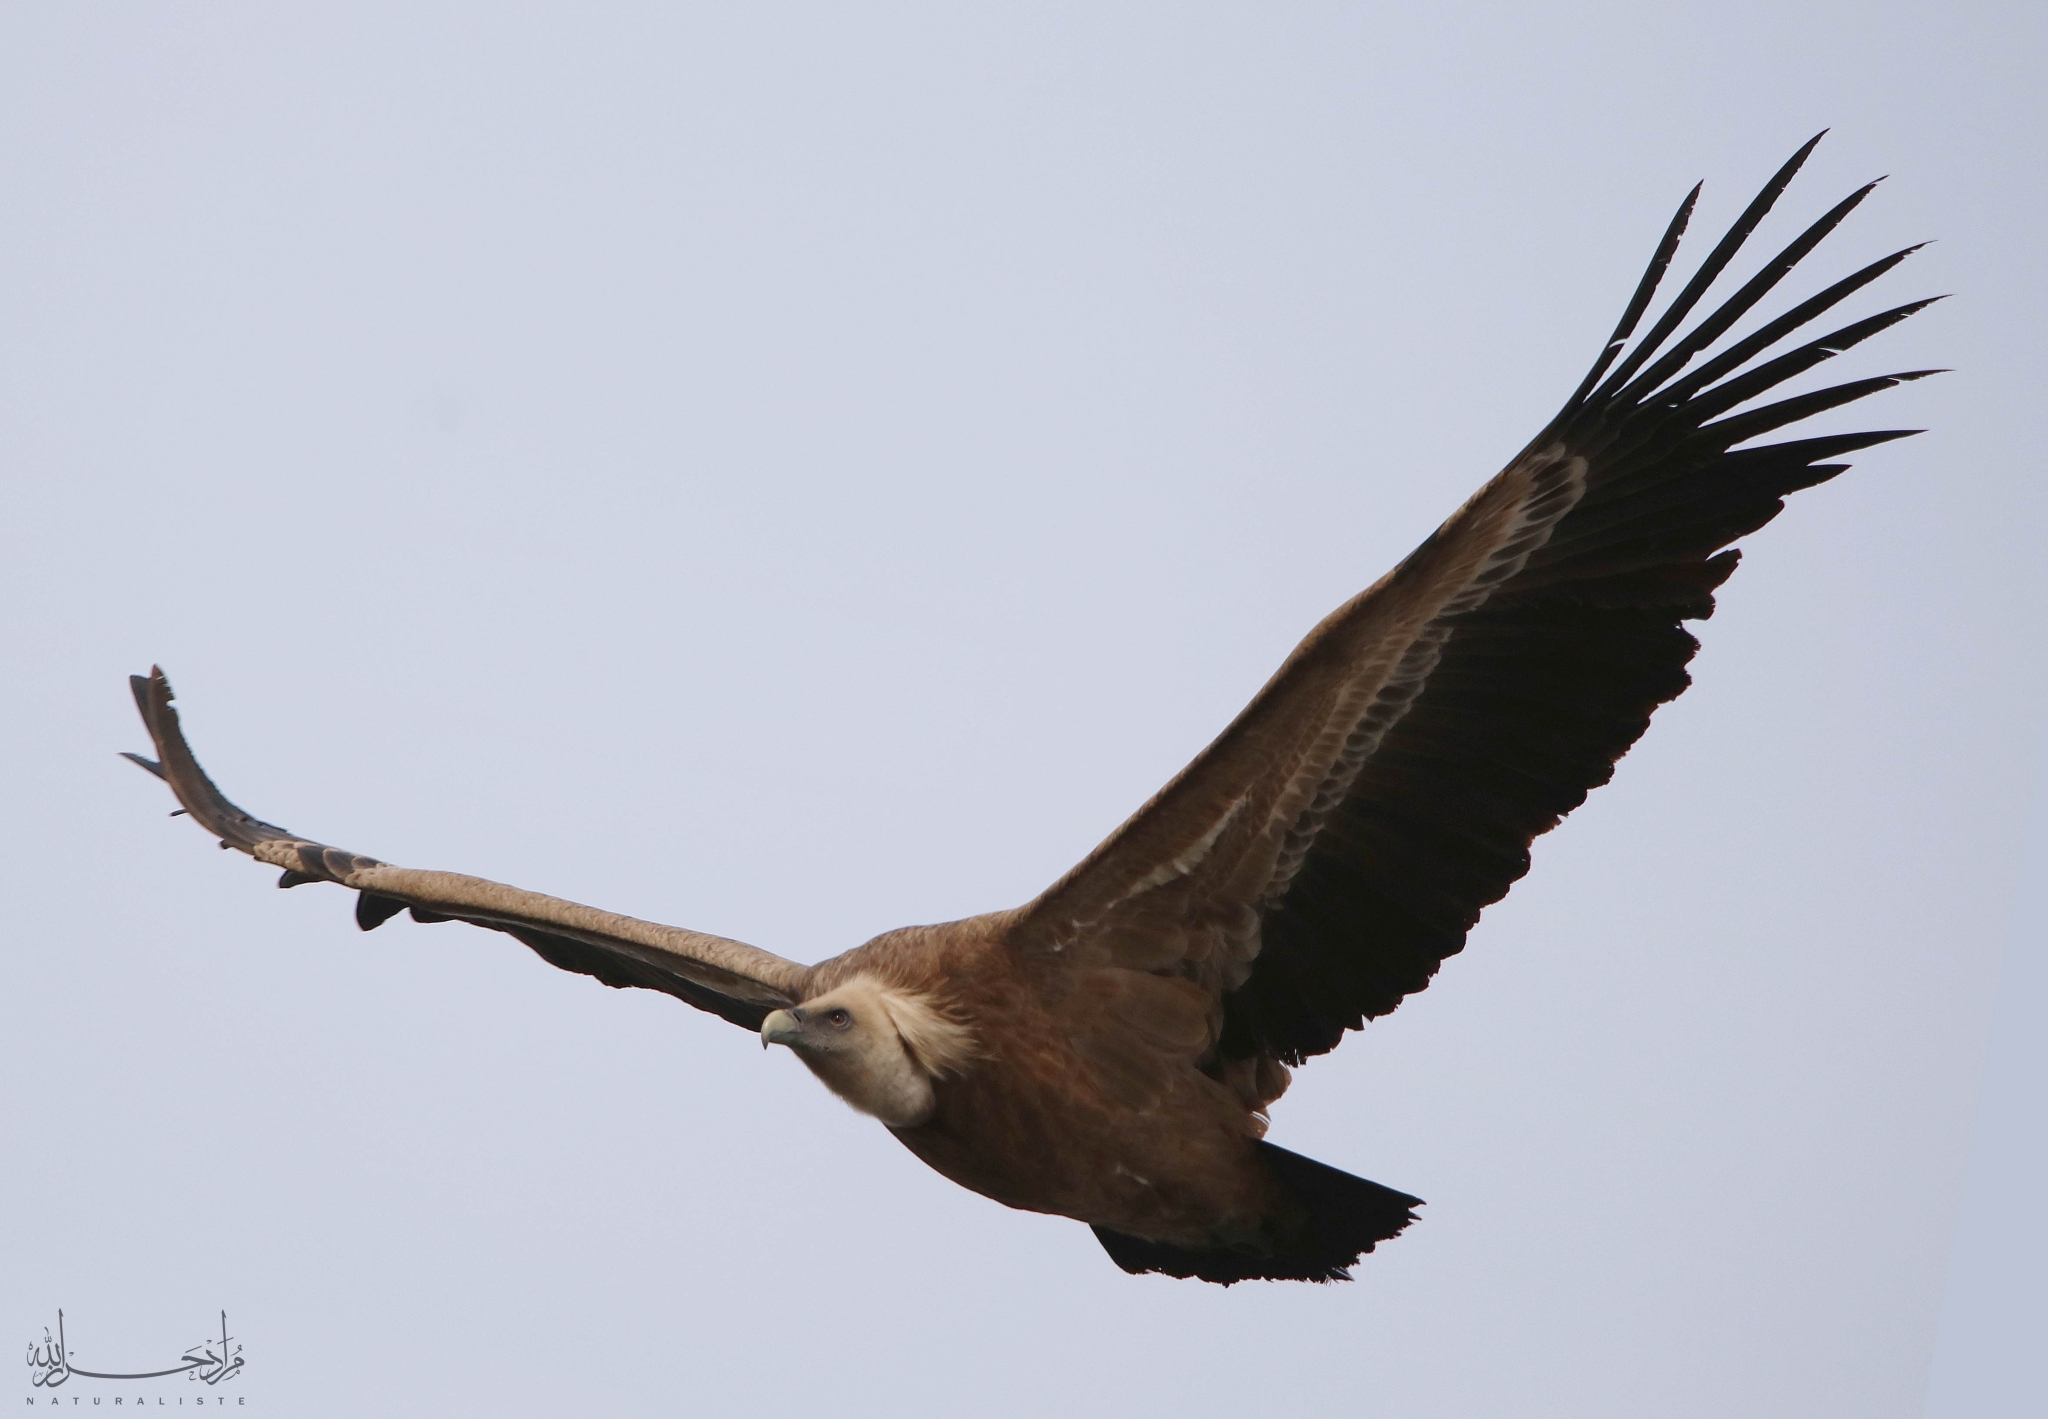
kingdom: Animalia
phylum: Chordata
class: Aves
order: Accipitriformes
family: Accipitridae
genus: Gyps
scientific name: Gyps fulvus
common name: Griffon vulture
